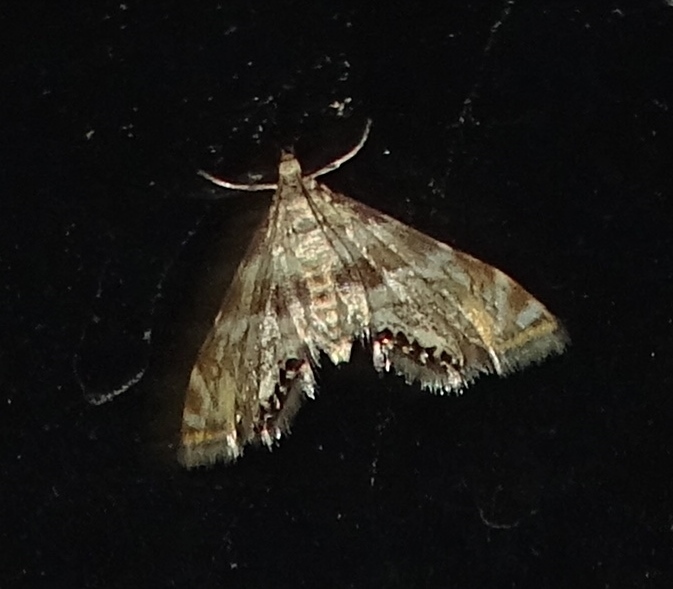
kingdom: Animalia
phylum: Arthropoda
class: Insecta
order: Lepidoptera
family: Crambidae
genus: Petrophila
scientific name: Petrophila canadensis
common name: Canadian petrophila
